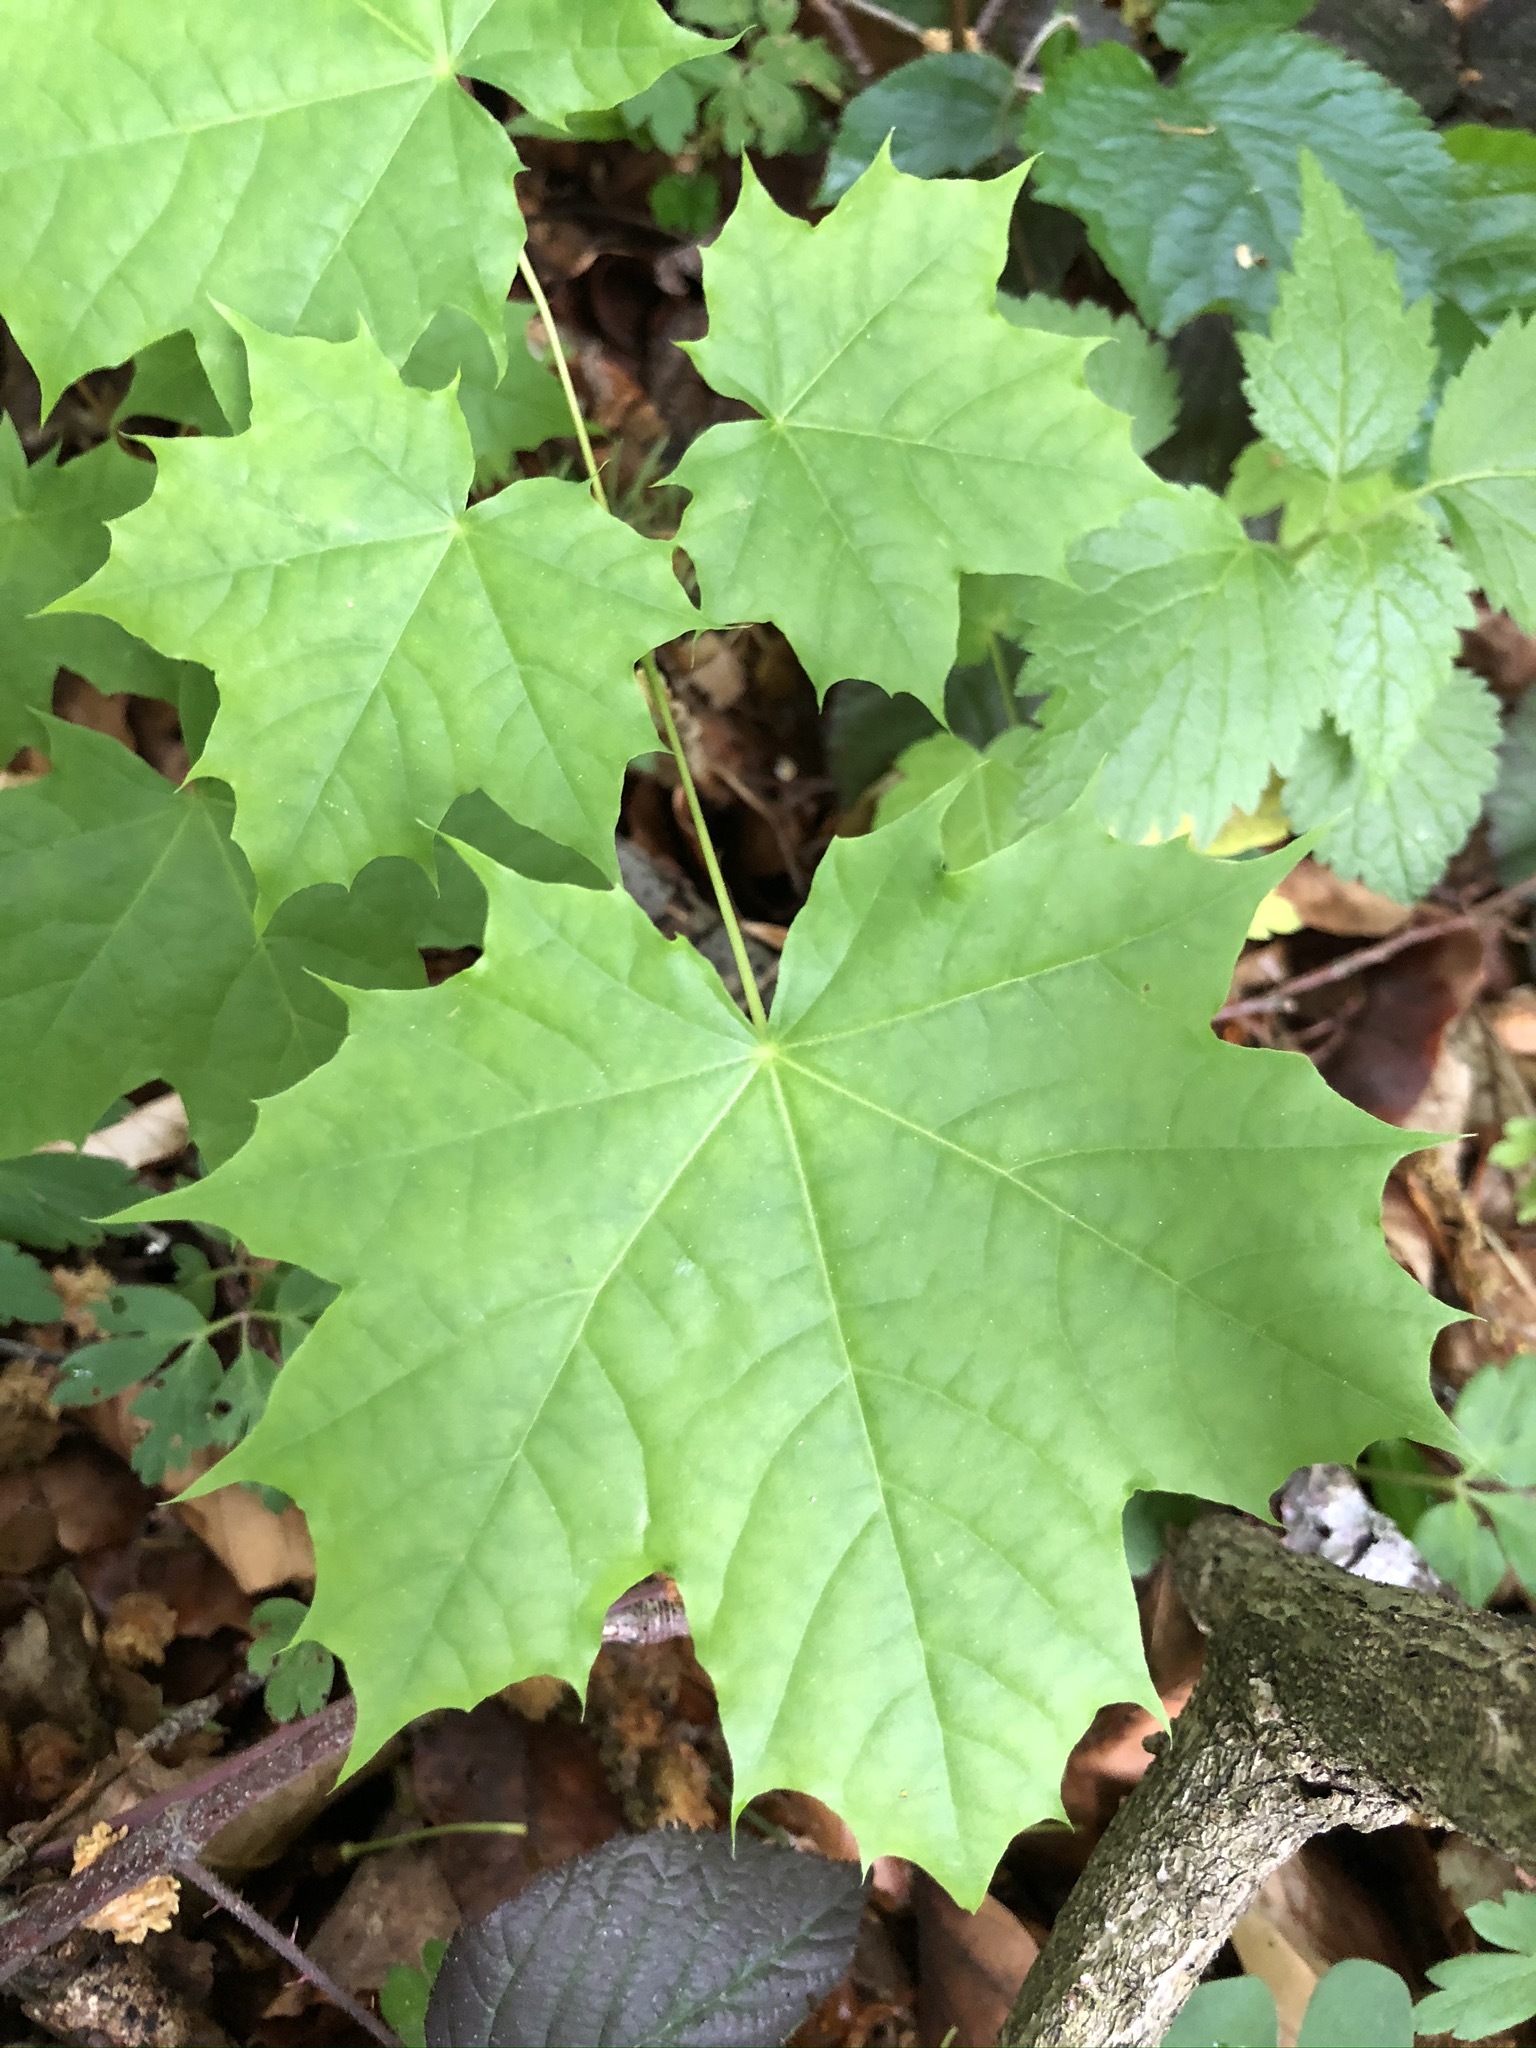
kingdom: Plantae
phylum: Tracheophyta
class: Magnoliopsida
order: Sapindales
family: Sapindaceae
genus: Acer
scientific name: Acer platanoides
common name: Norway maple
